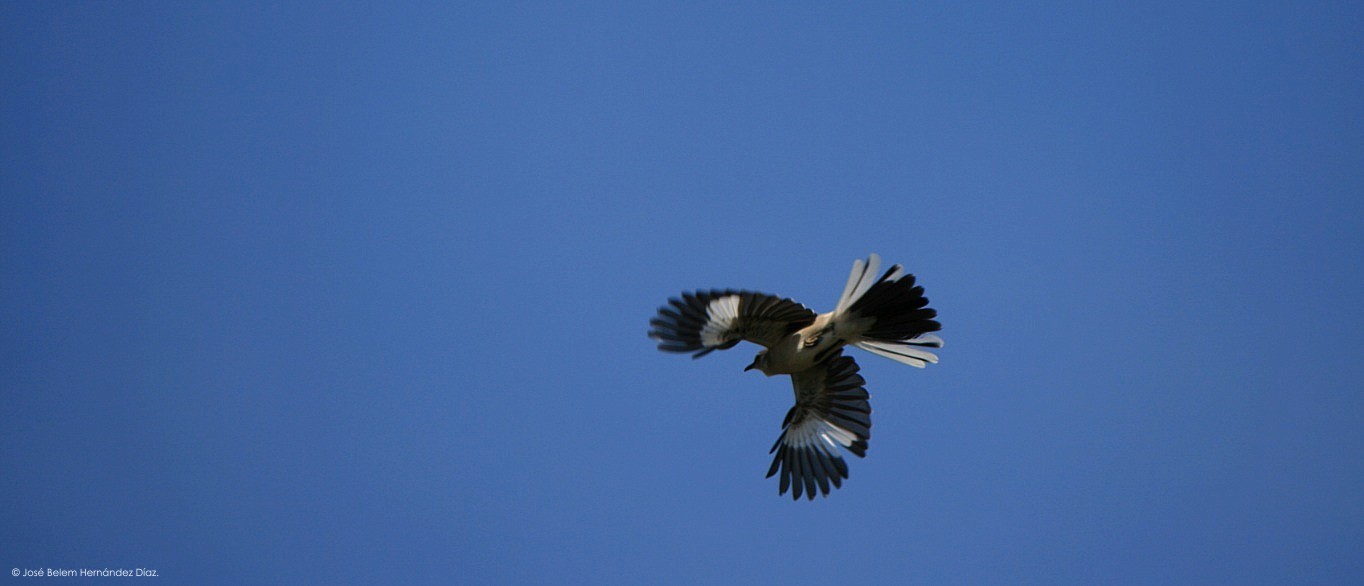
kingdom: Animalia
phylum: Chordata
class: Aves
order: Passeriformes
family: Mimidae
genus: Mimus
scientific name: Mimus polyglottos
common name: Northern mockingbird
